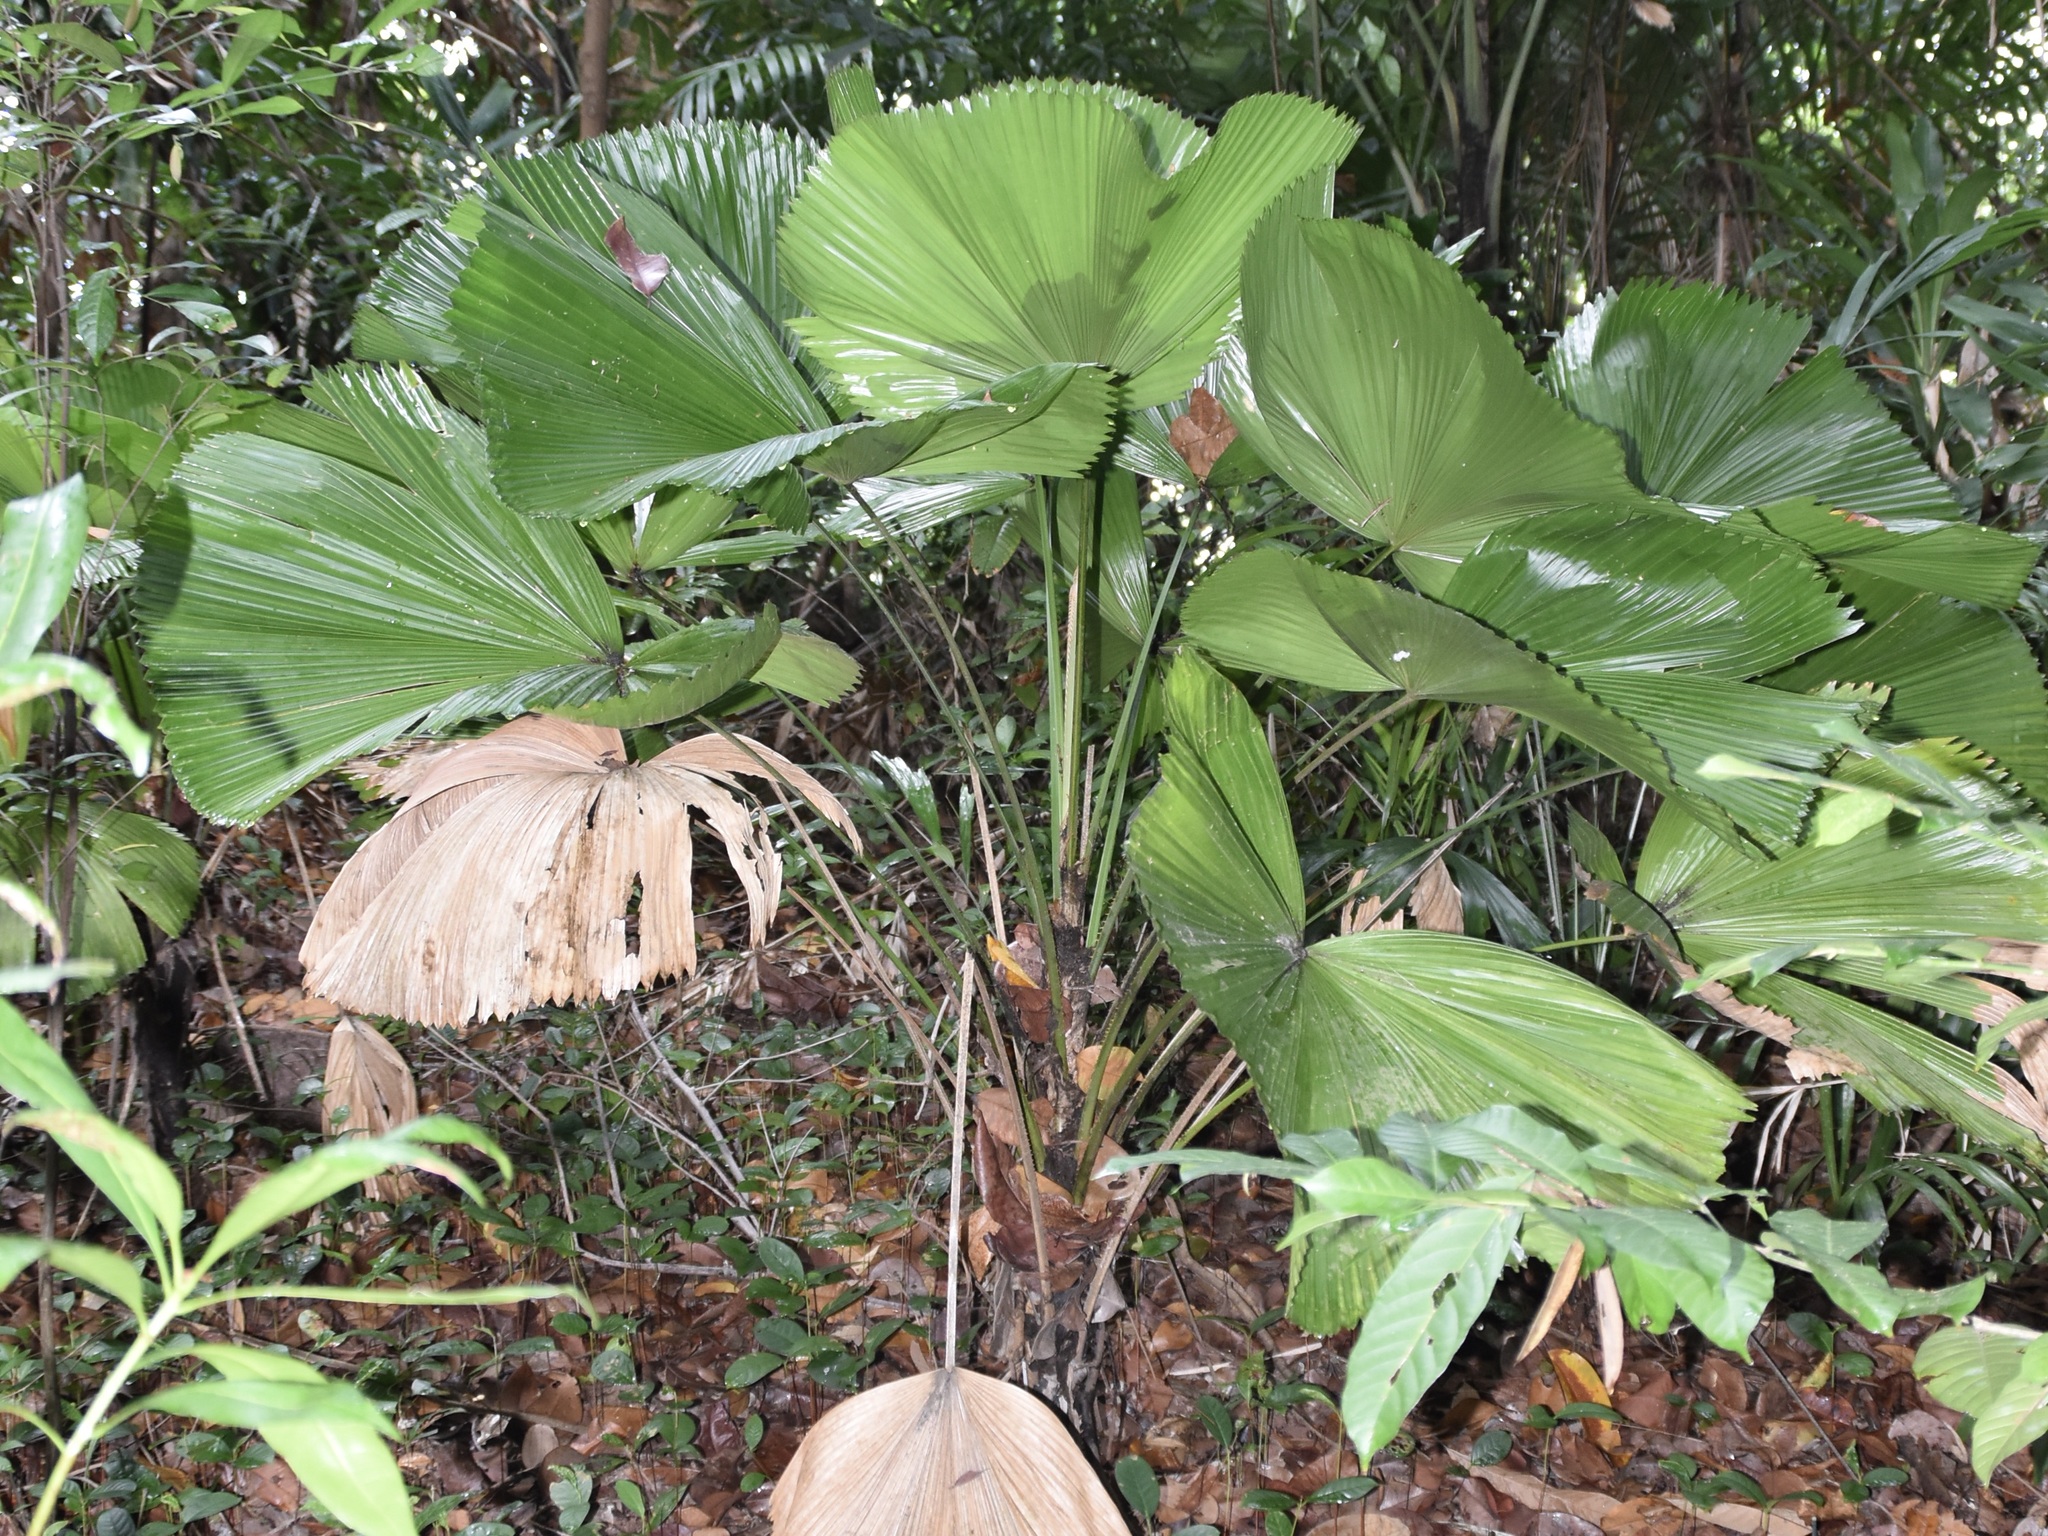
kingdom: Plantae
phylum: Tracheophyta
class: Liliopsida
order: Arecales
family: Arecaceae
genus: Licuala
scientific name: Licuala grandis
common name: Ruffled fan palm
